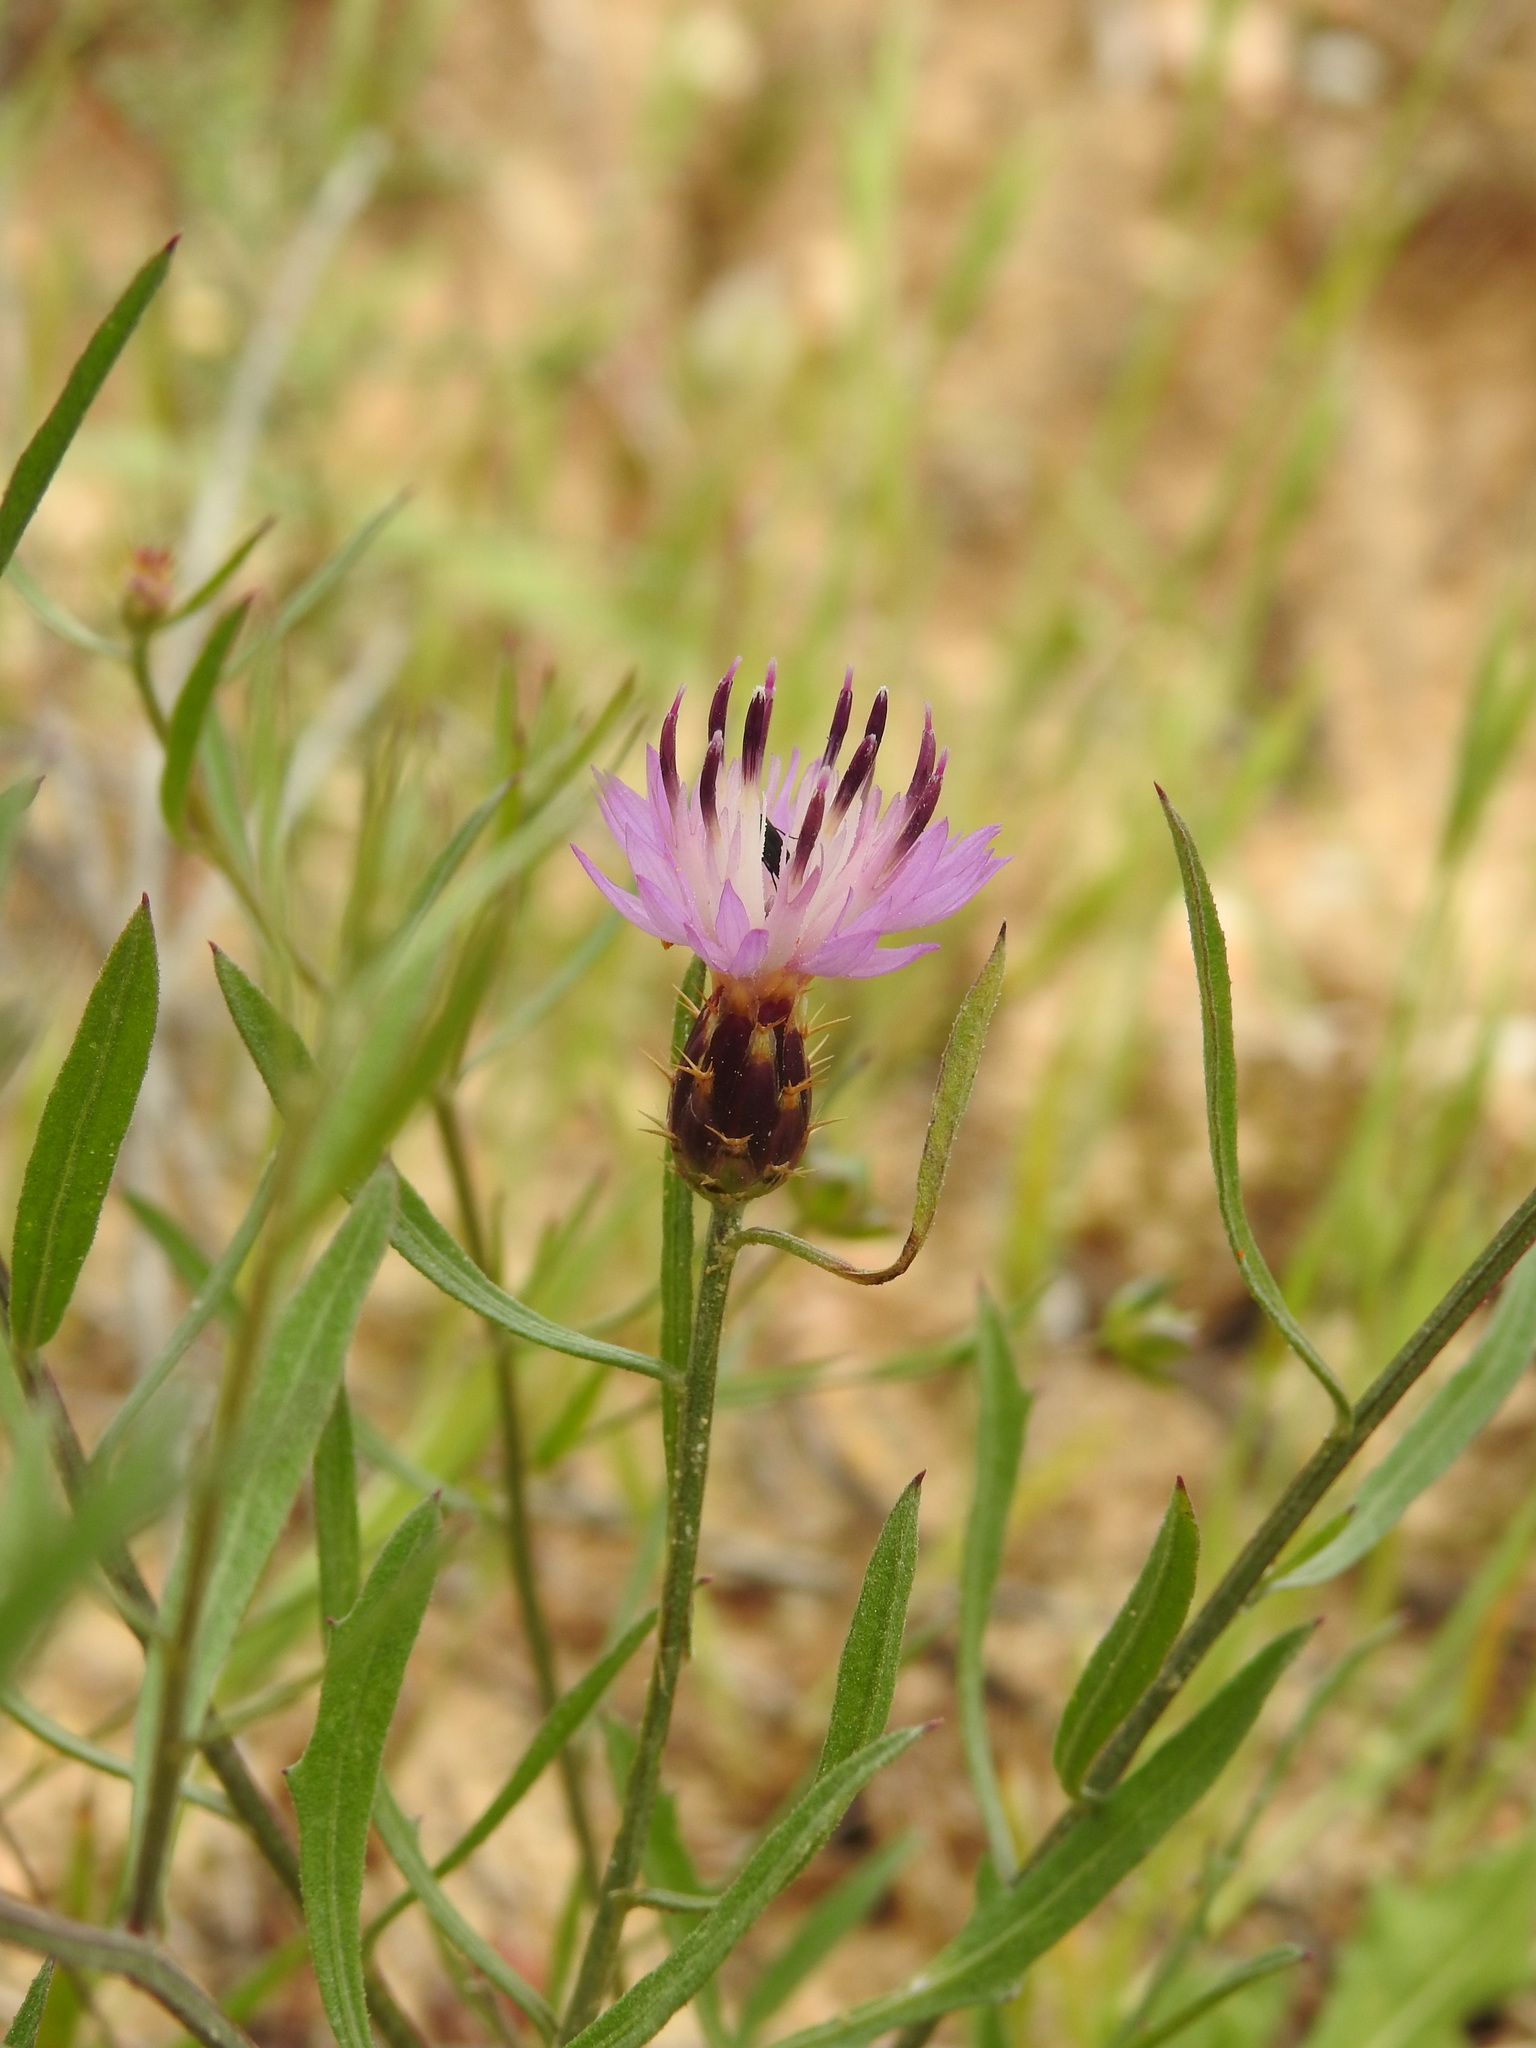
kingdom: Plantae
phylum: Tracheophyta
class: Magnoliopsida
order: Asterales
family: Asteraceae
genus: Centaurea
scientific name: Centaurea aspera
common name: Rough star-thistle
